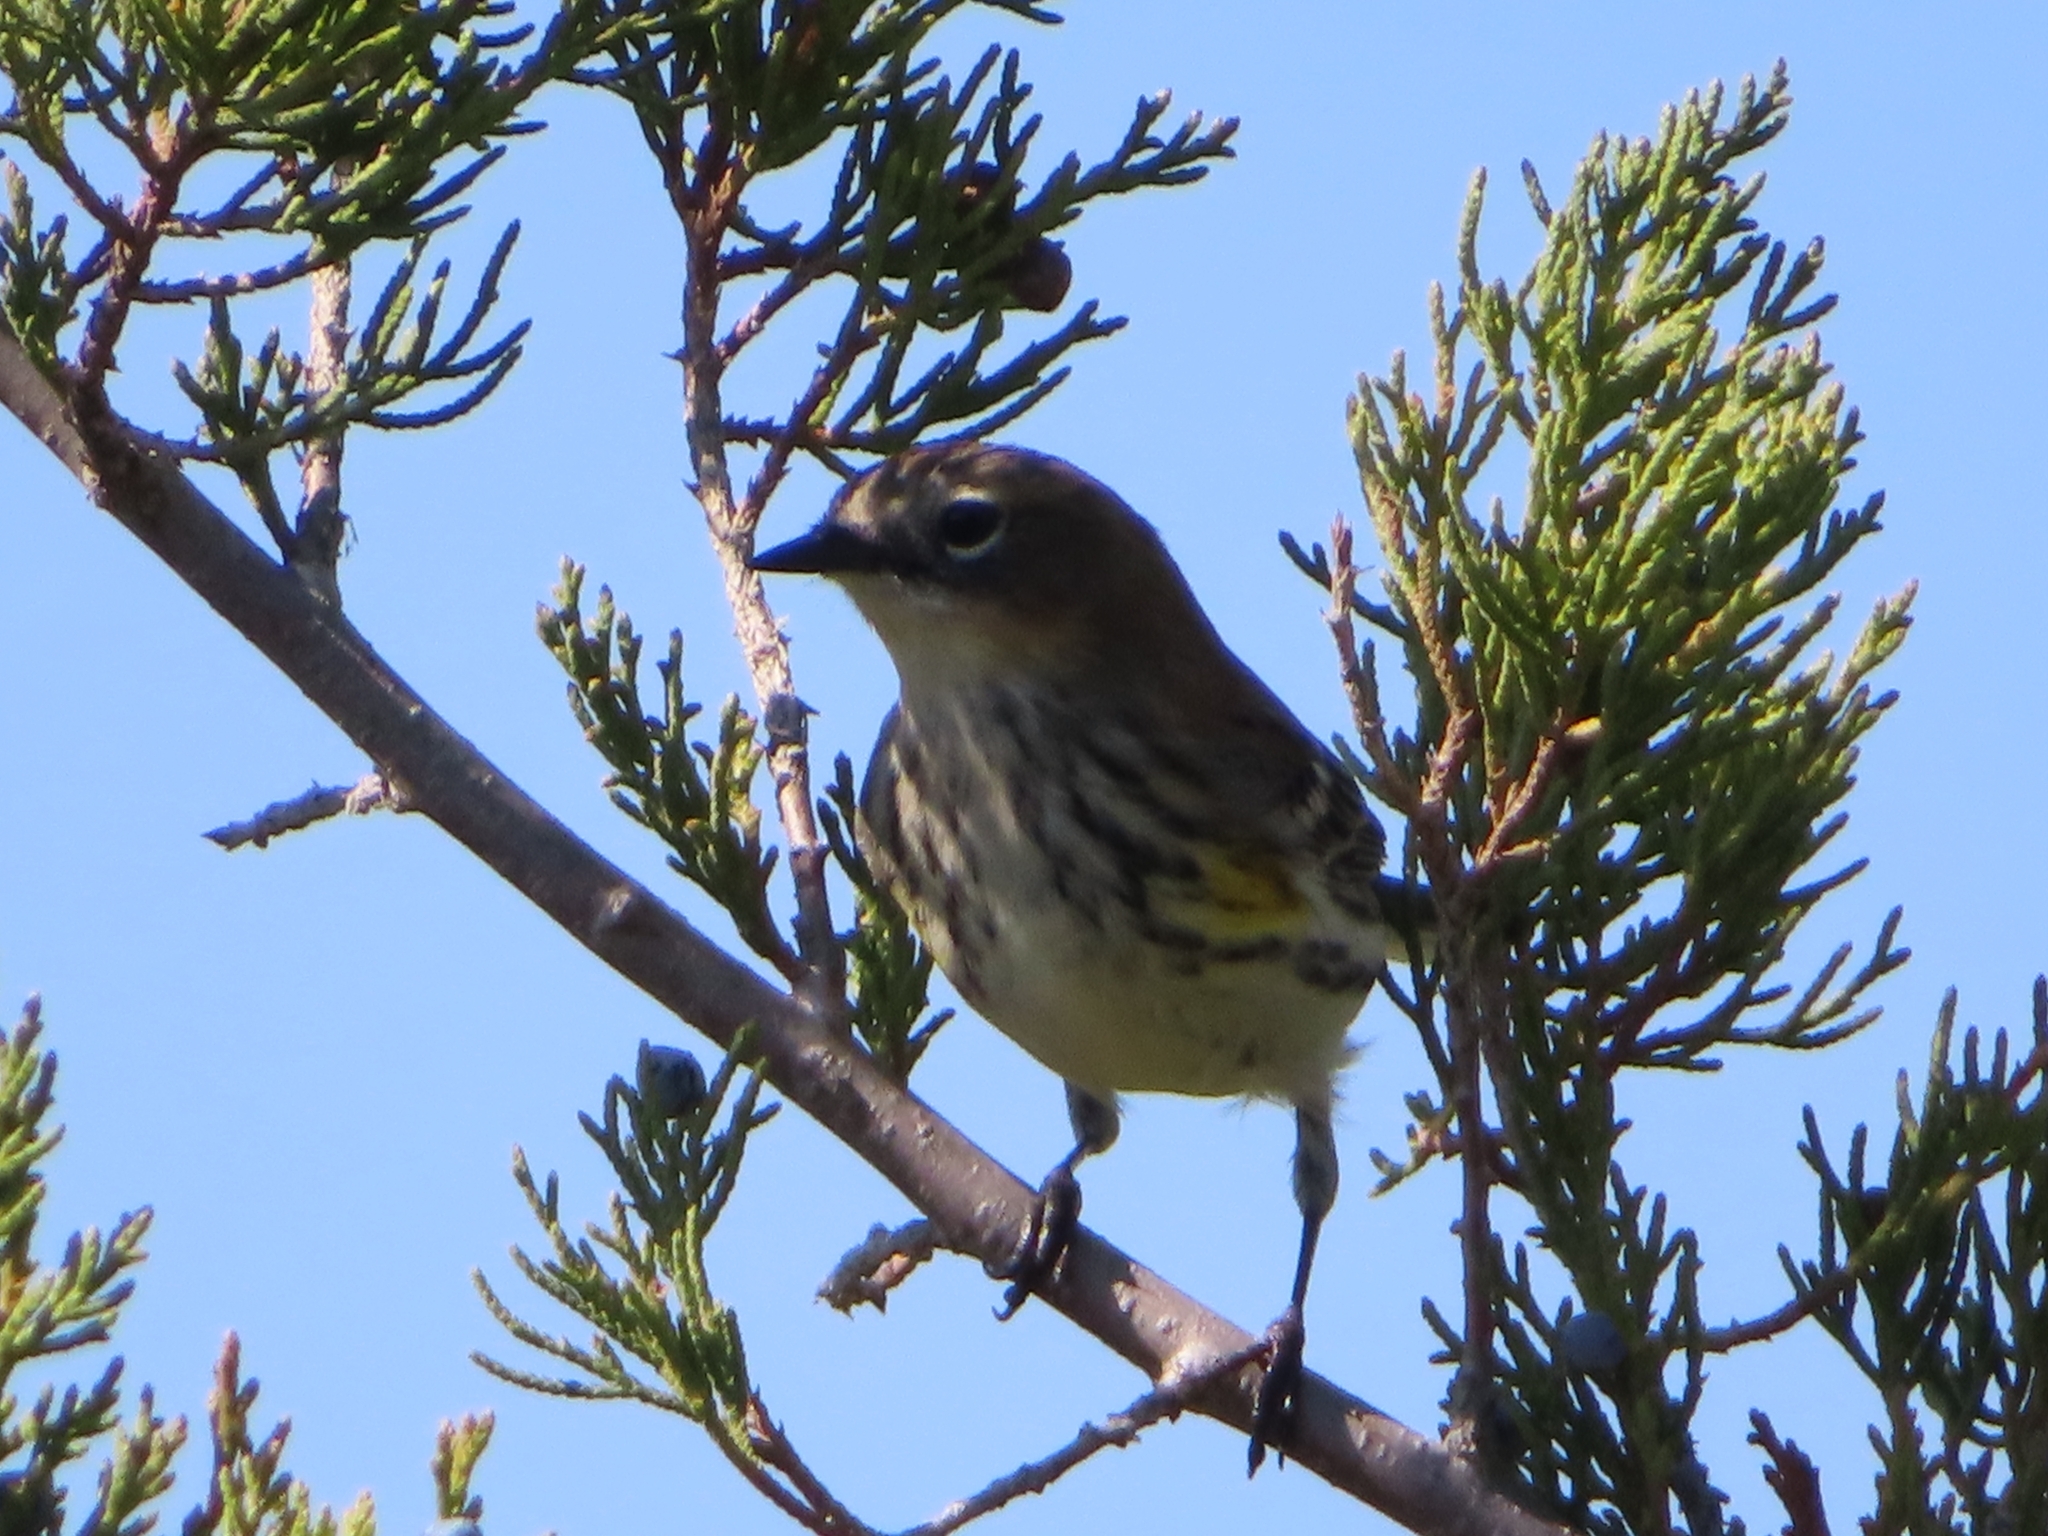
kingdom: Animalia
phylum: Chordata
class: Aves
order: Passeriformes
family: Parulidae
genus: Setophaga
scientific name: Setophaga coronata
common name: Myrtle warbler
